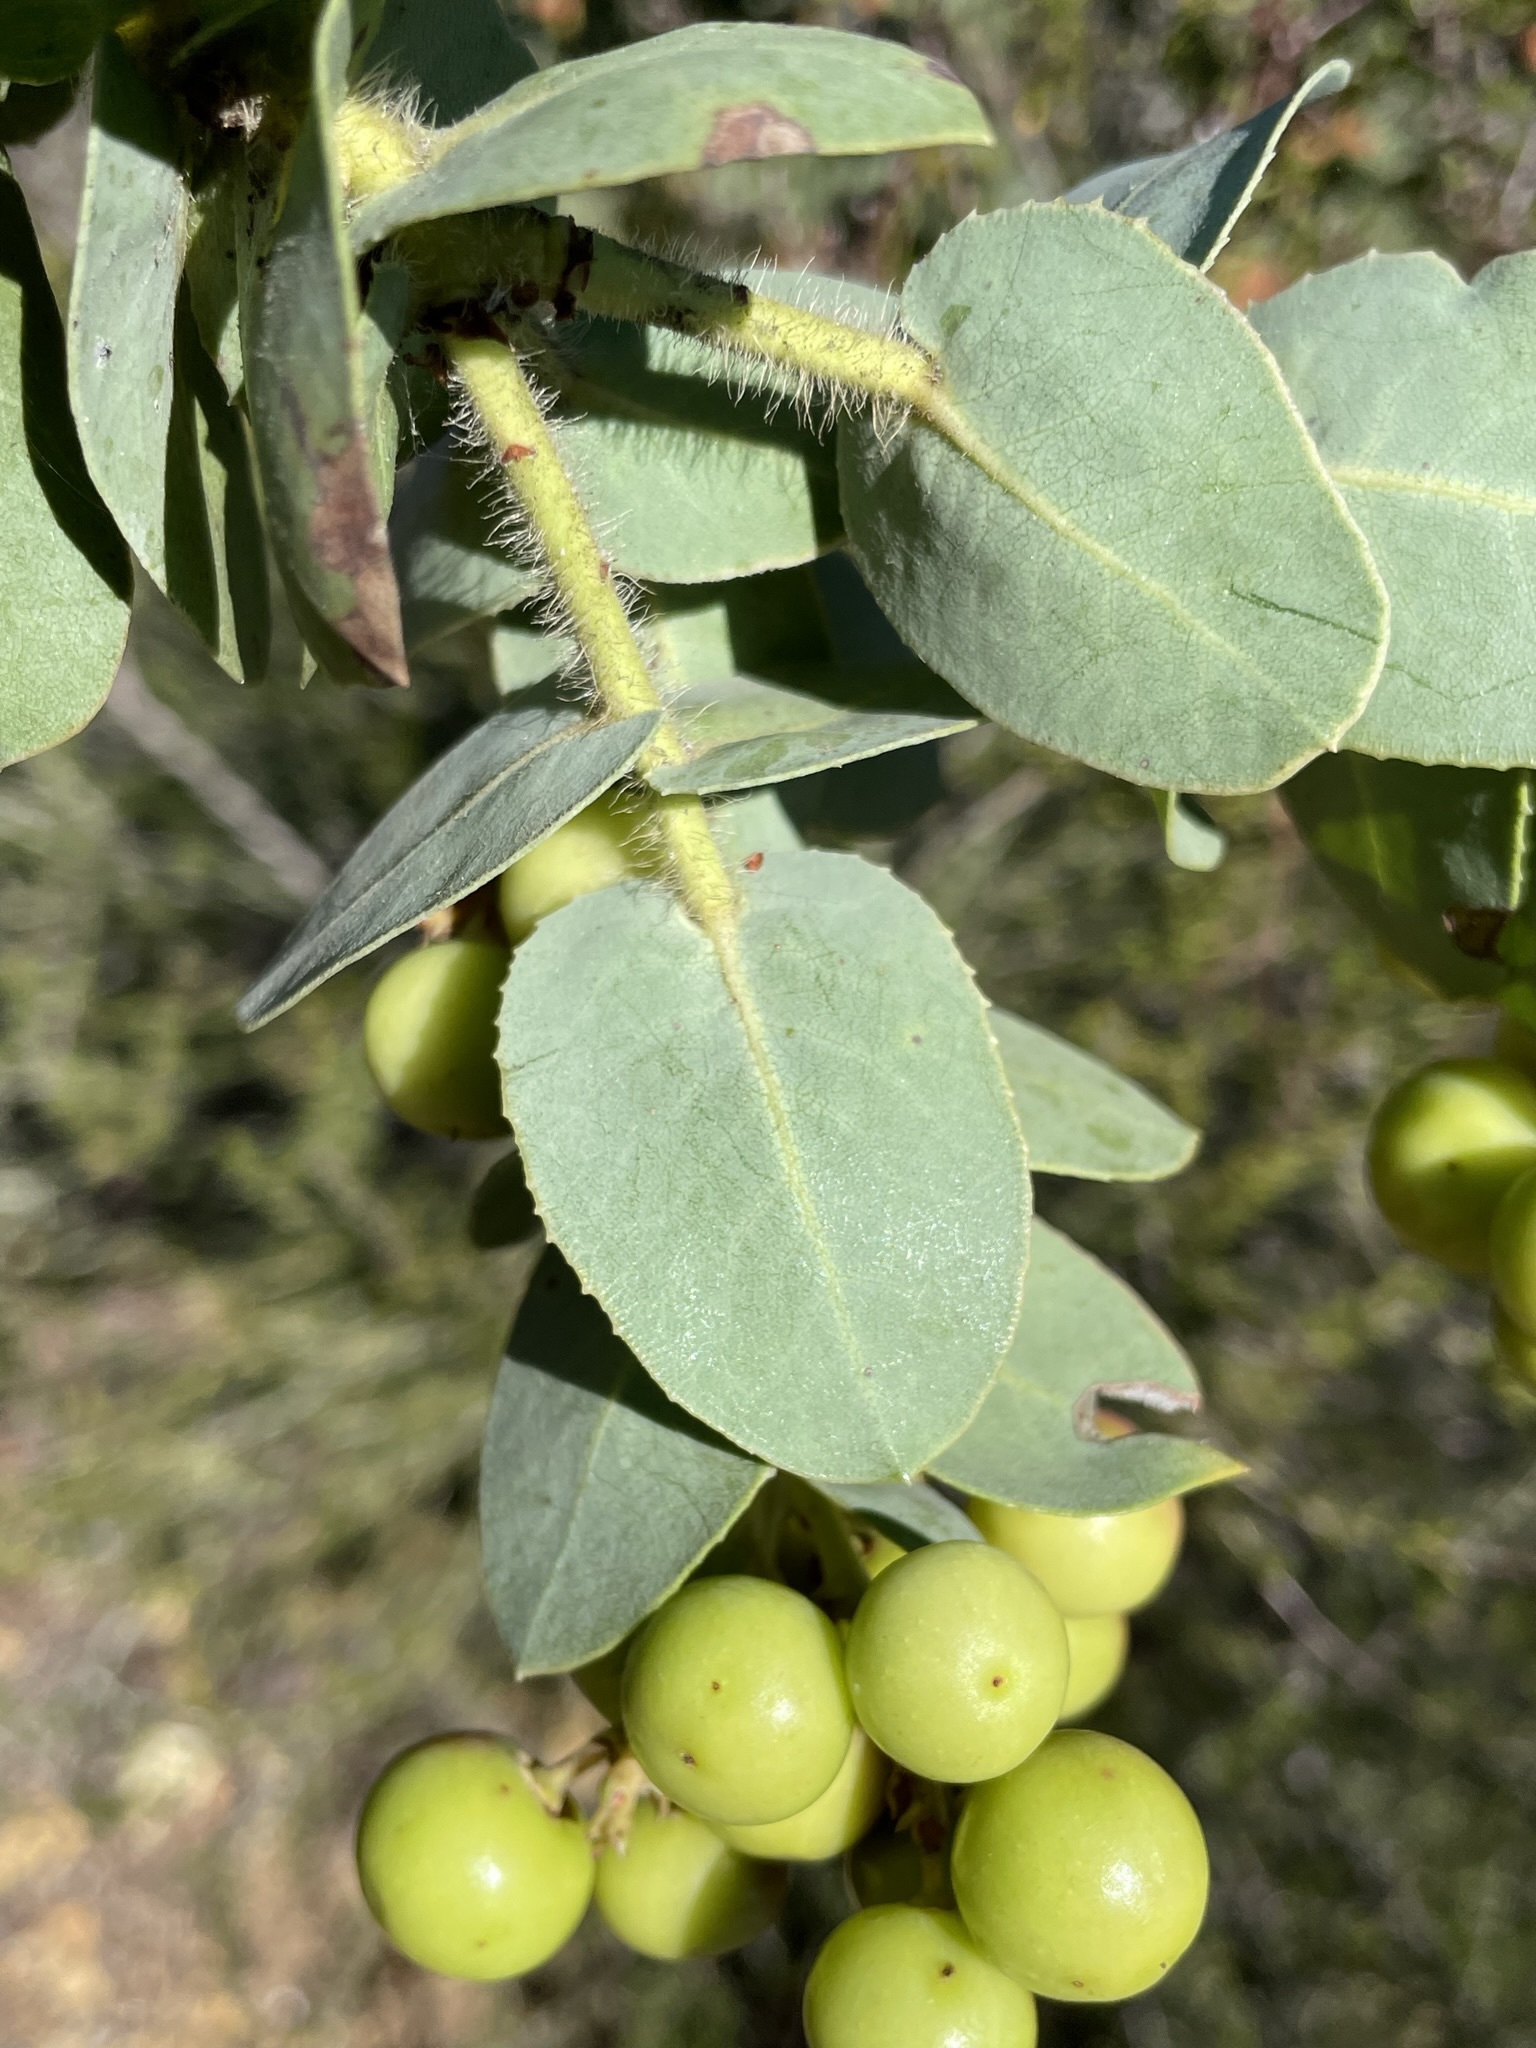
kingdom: Plantae
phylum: Tracheophyta
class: Magnoliopsida
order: Ericales
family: Ericaceae
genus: Arctostaphylos
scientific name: Arctostaphylos refugioensis
